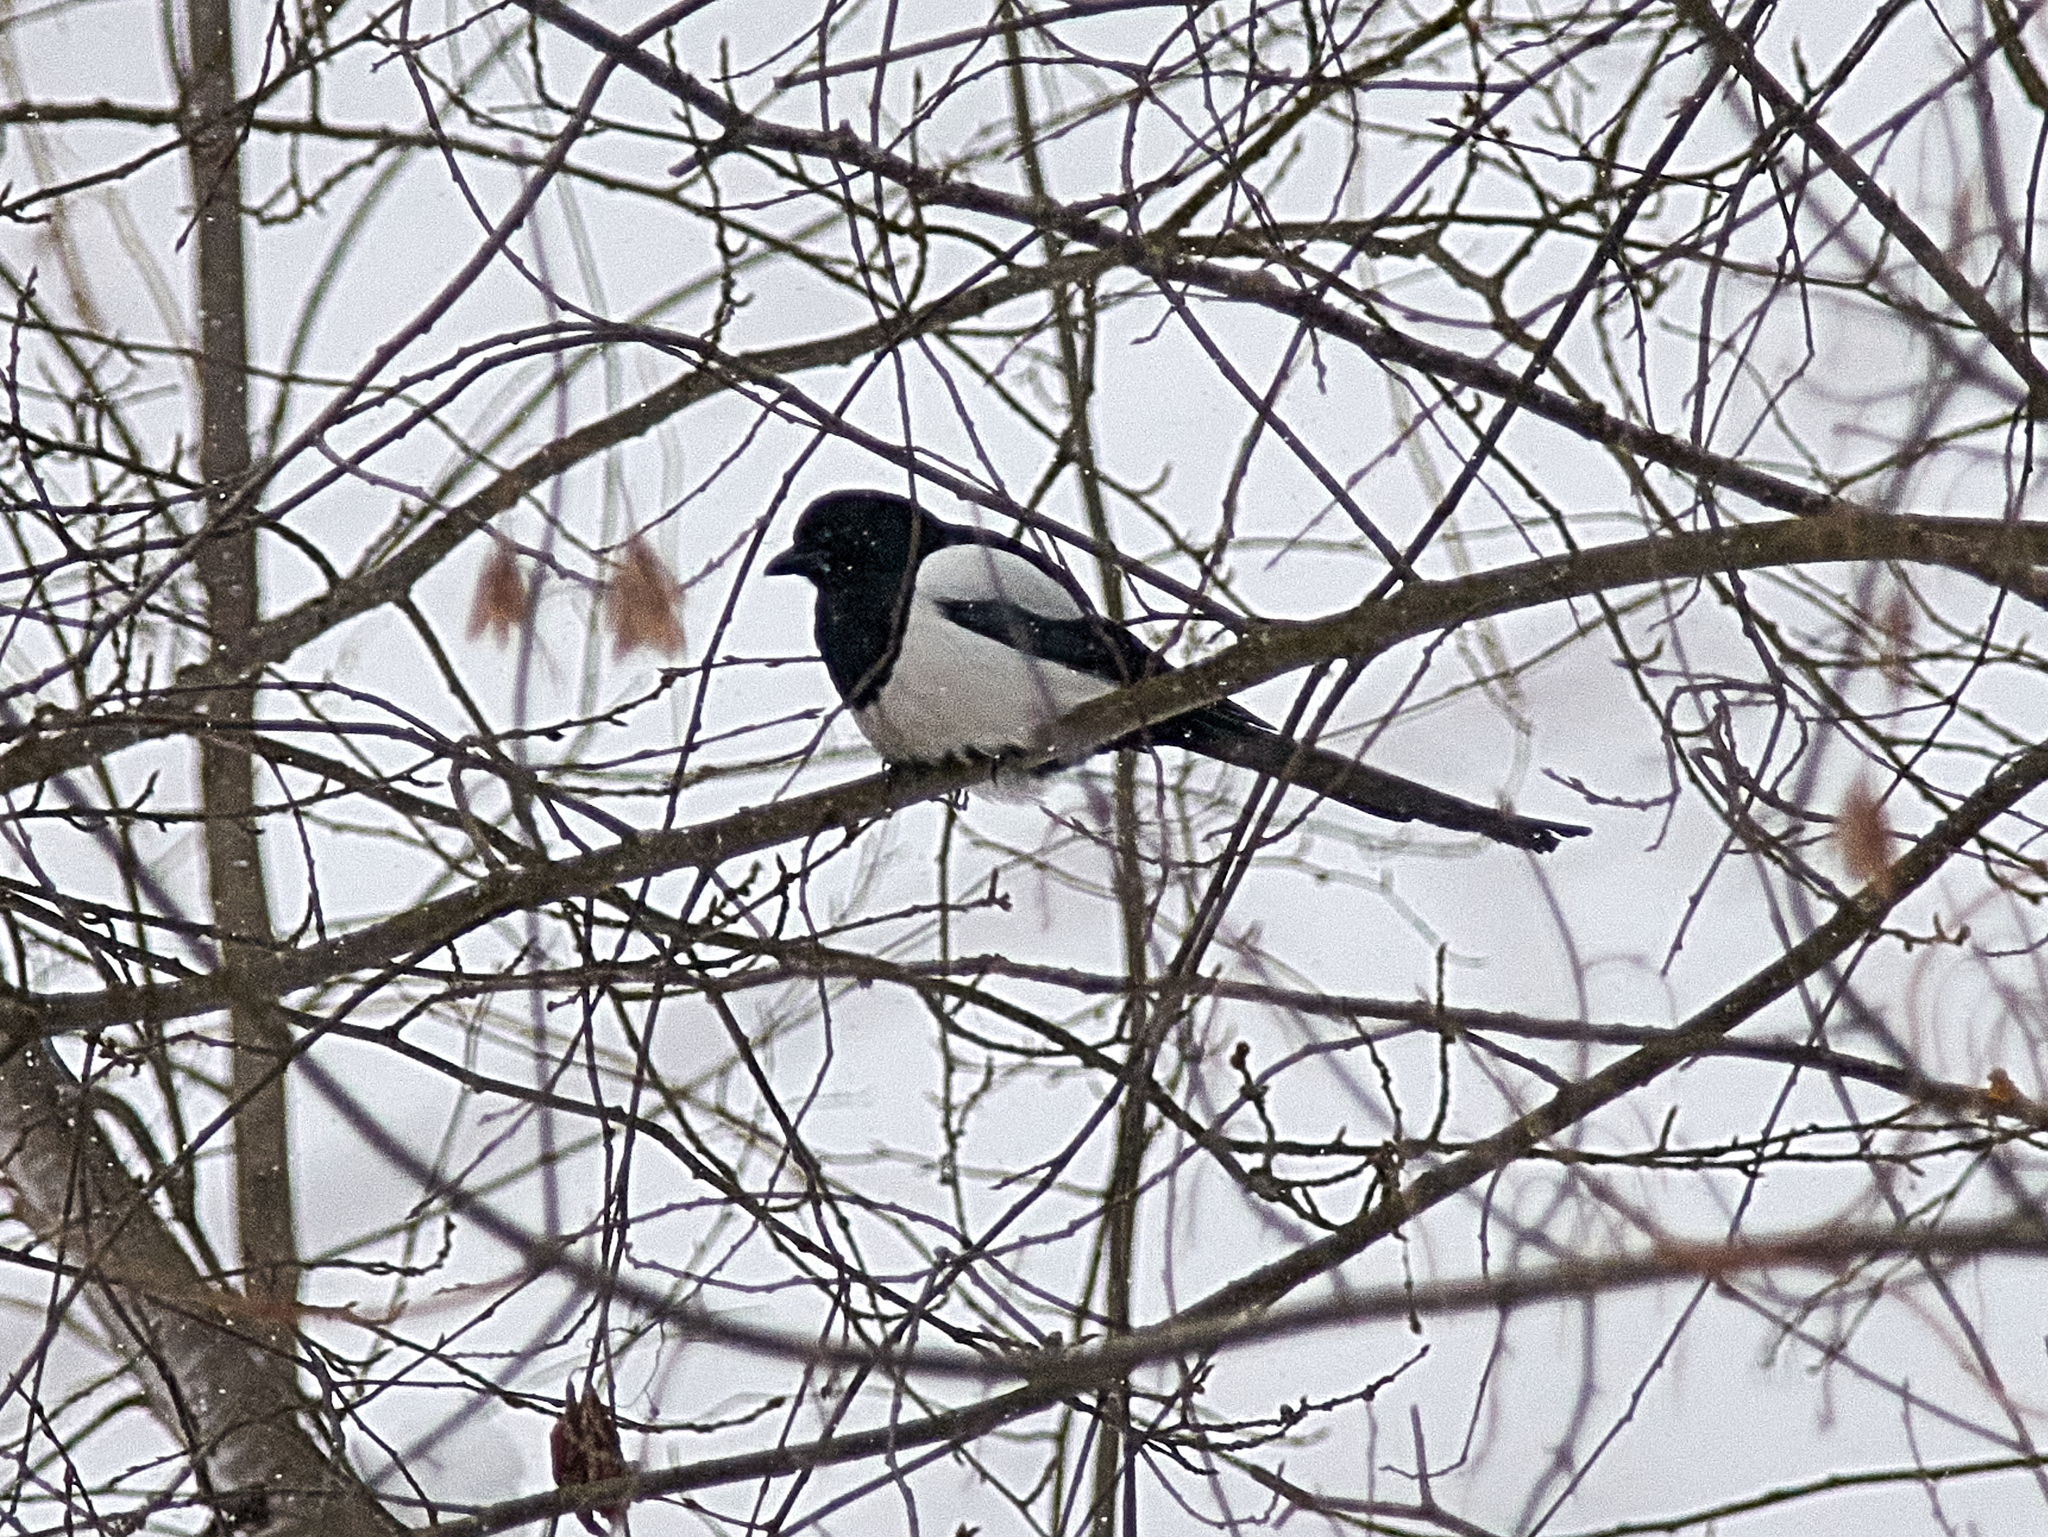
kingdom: Animalia
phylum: Chordata
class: Aves
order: Passeriformes
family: Corvidae
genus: Pica
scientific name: Pica pica
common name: Eurasian magpie
